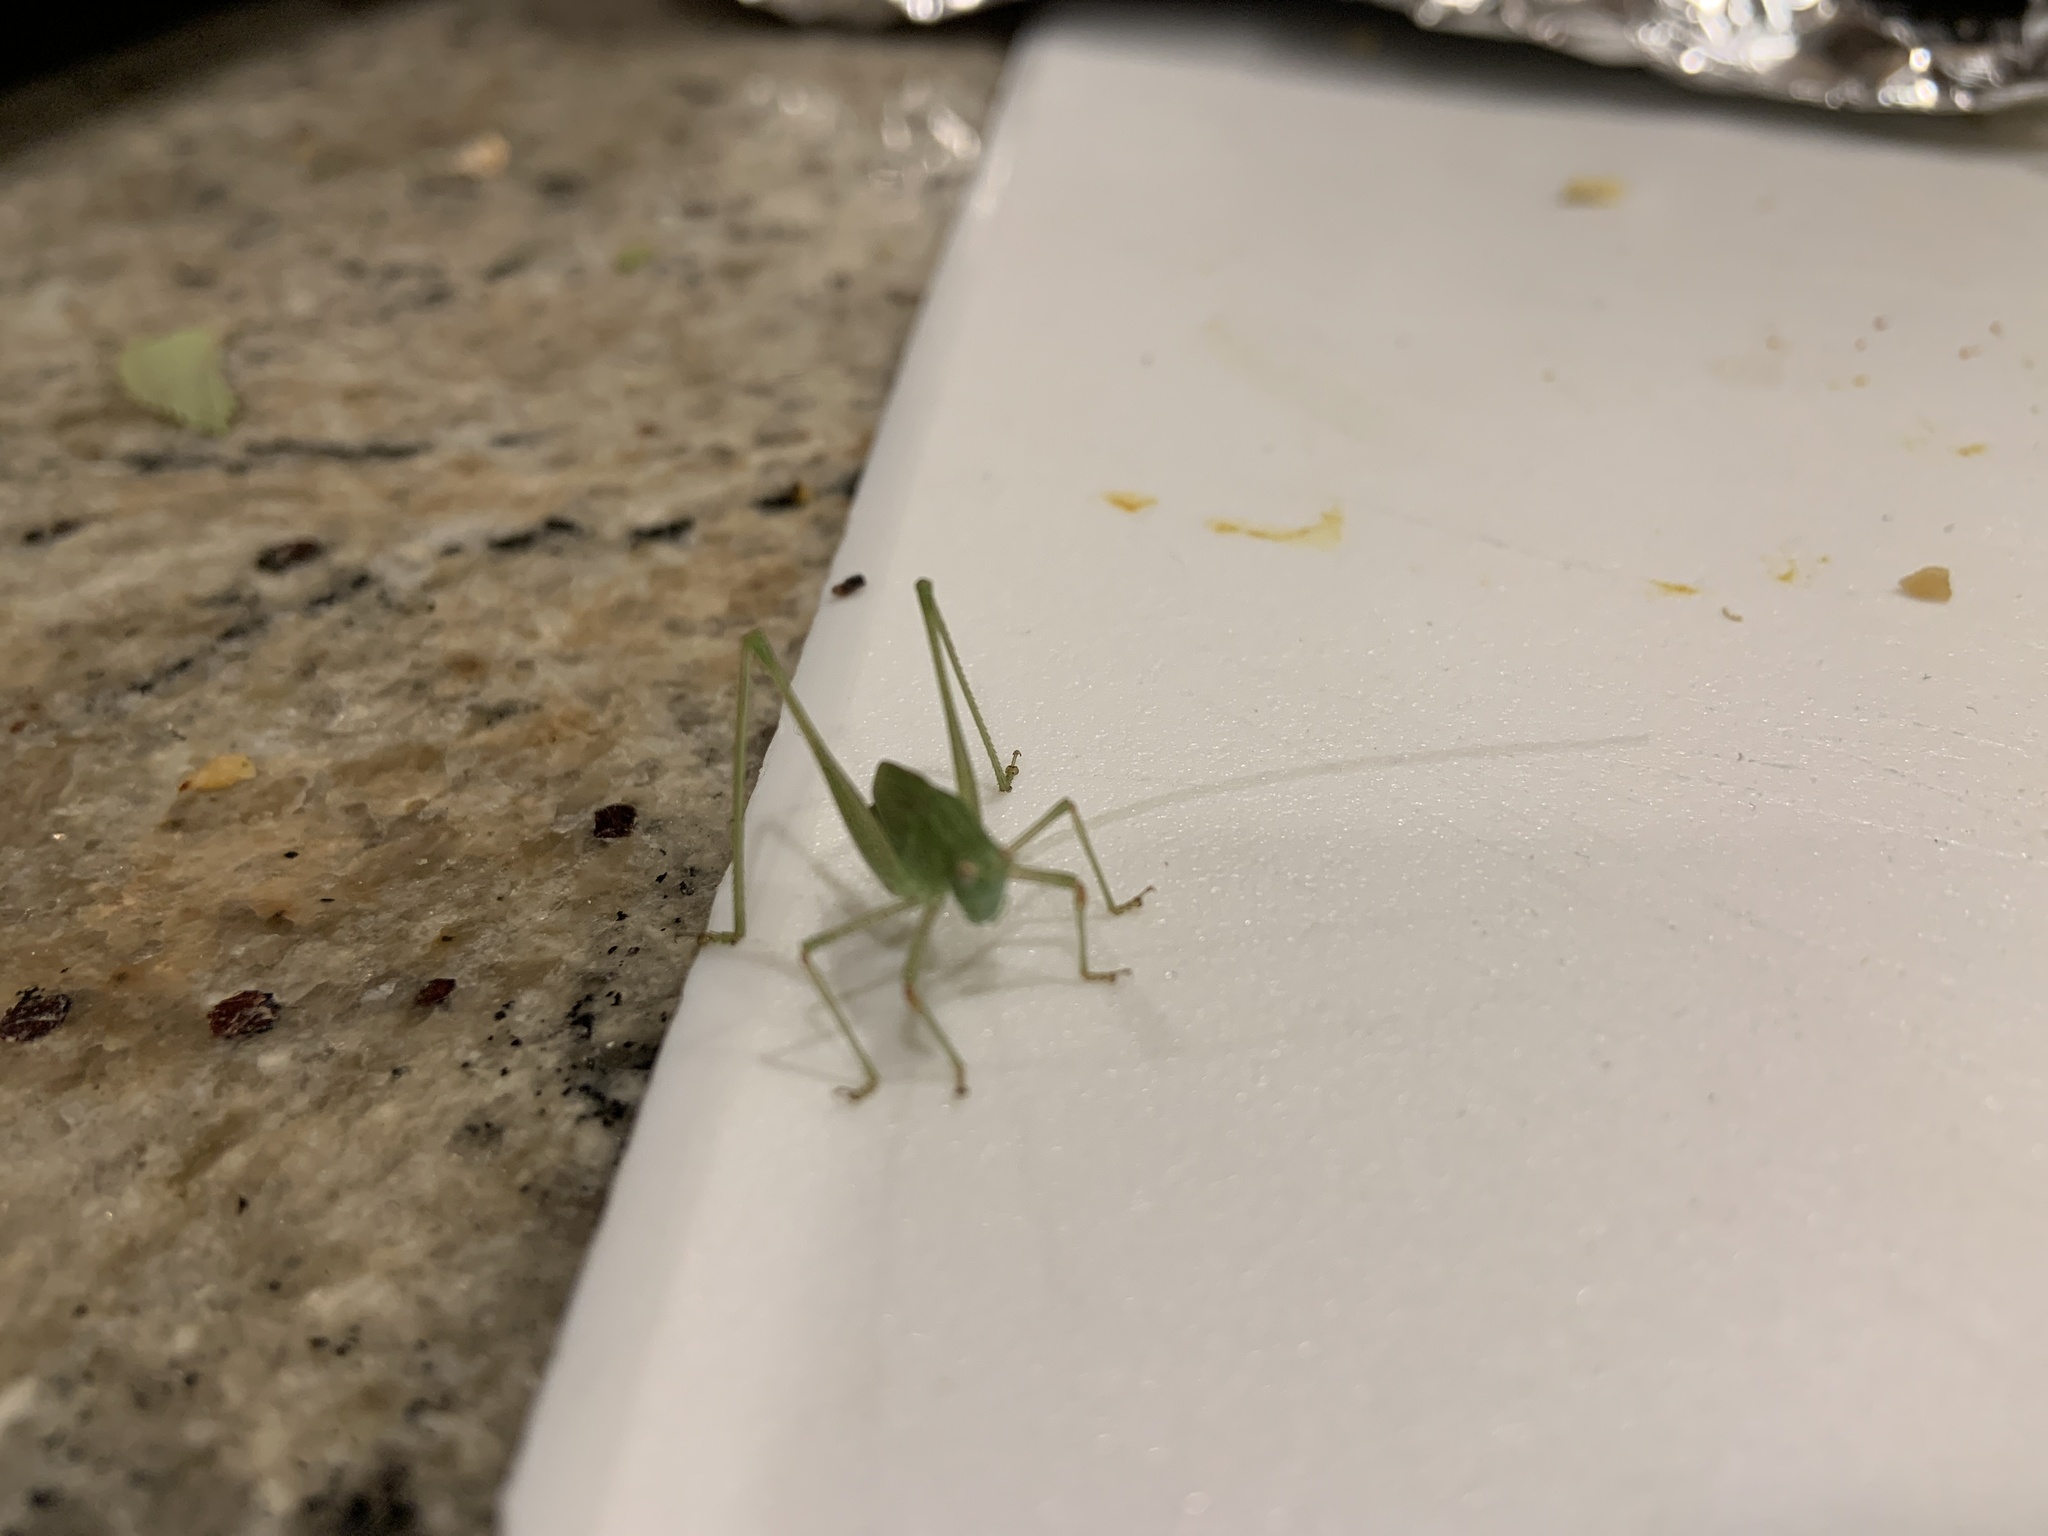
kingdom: Animalia
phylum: Arthropoda
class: Insecta
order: Orthoptera
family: Tettigoniidae
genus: Phaneroptera
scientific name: Phaneroptera nana
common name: Southern sickle bush-cricket
